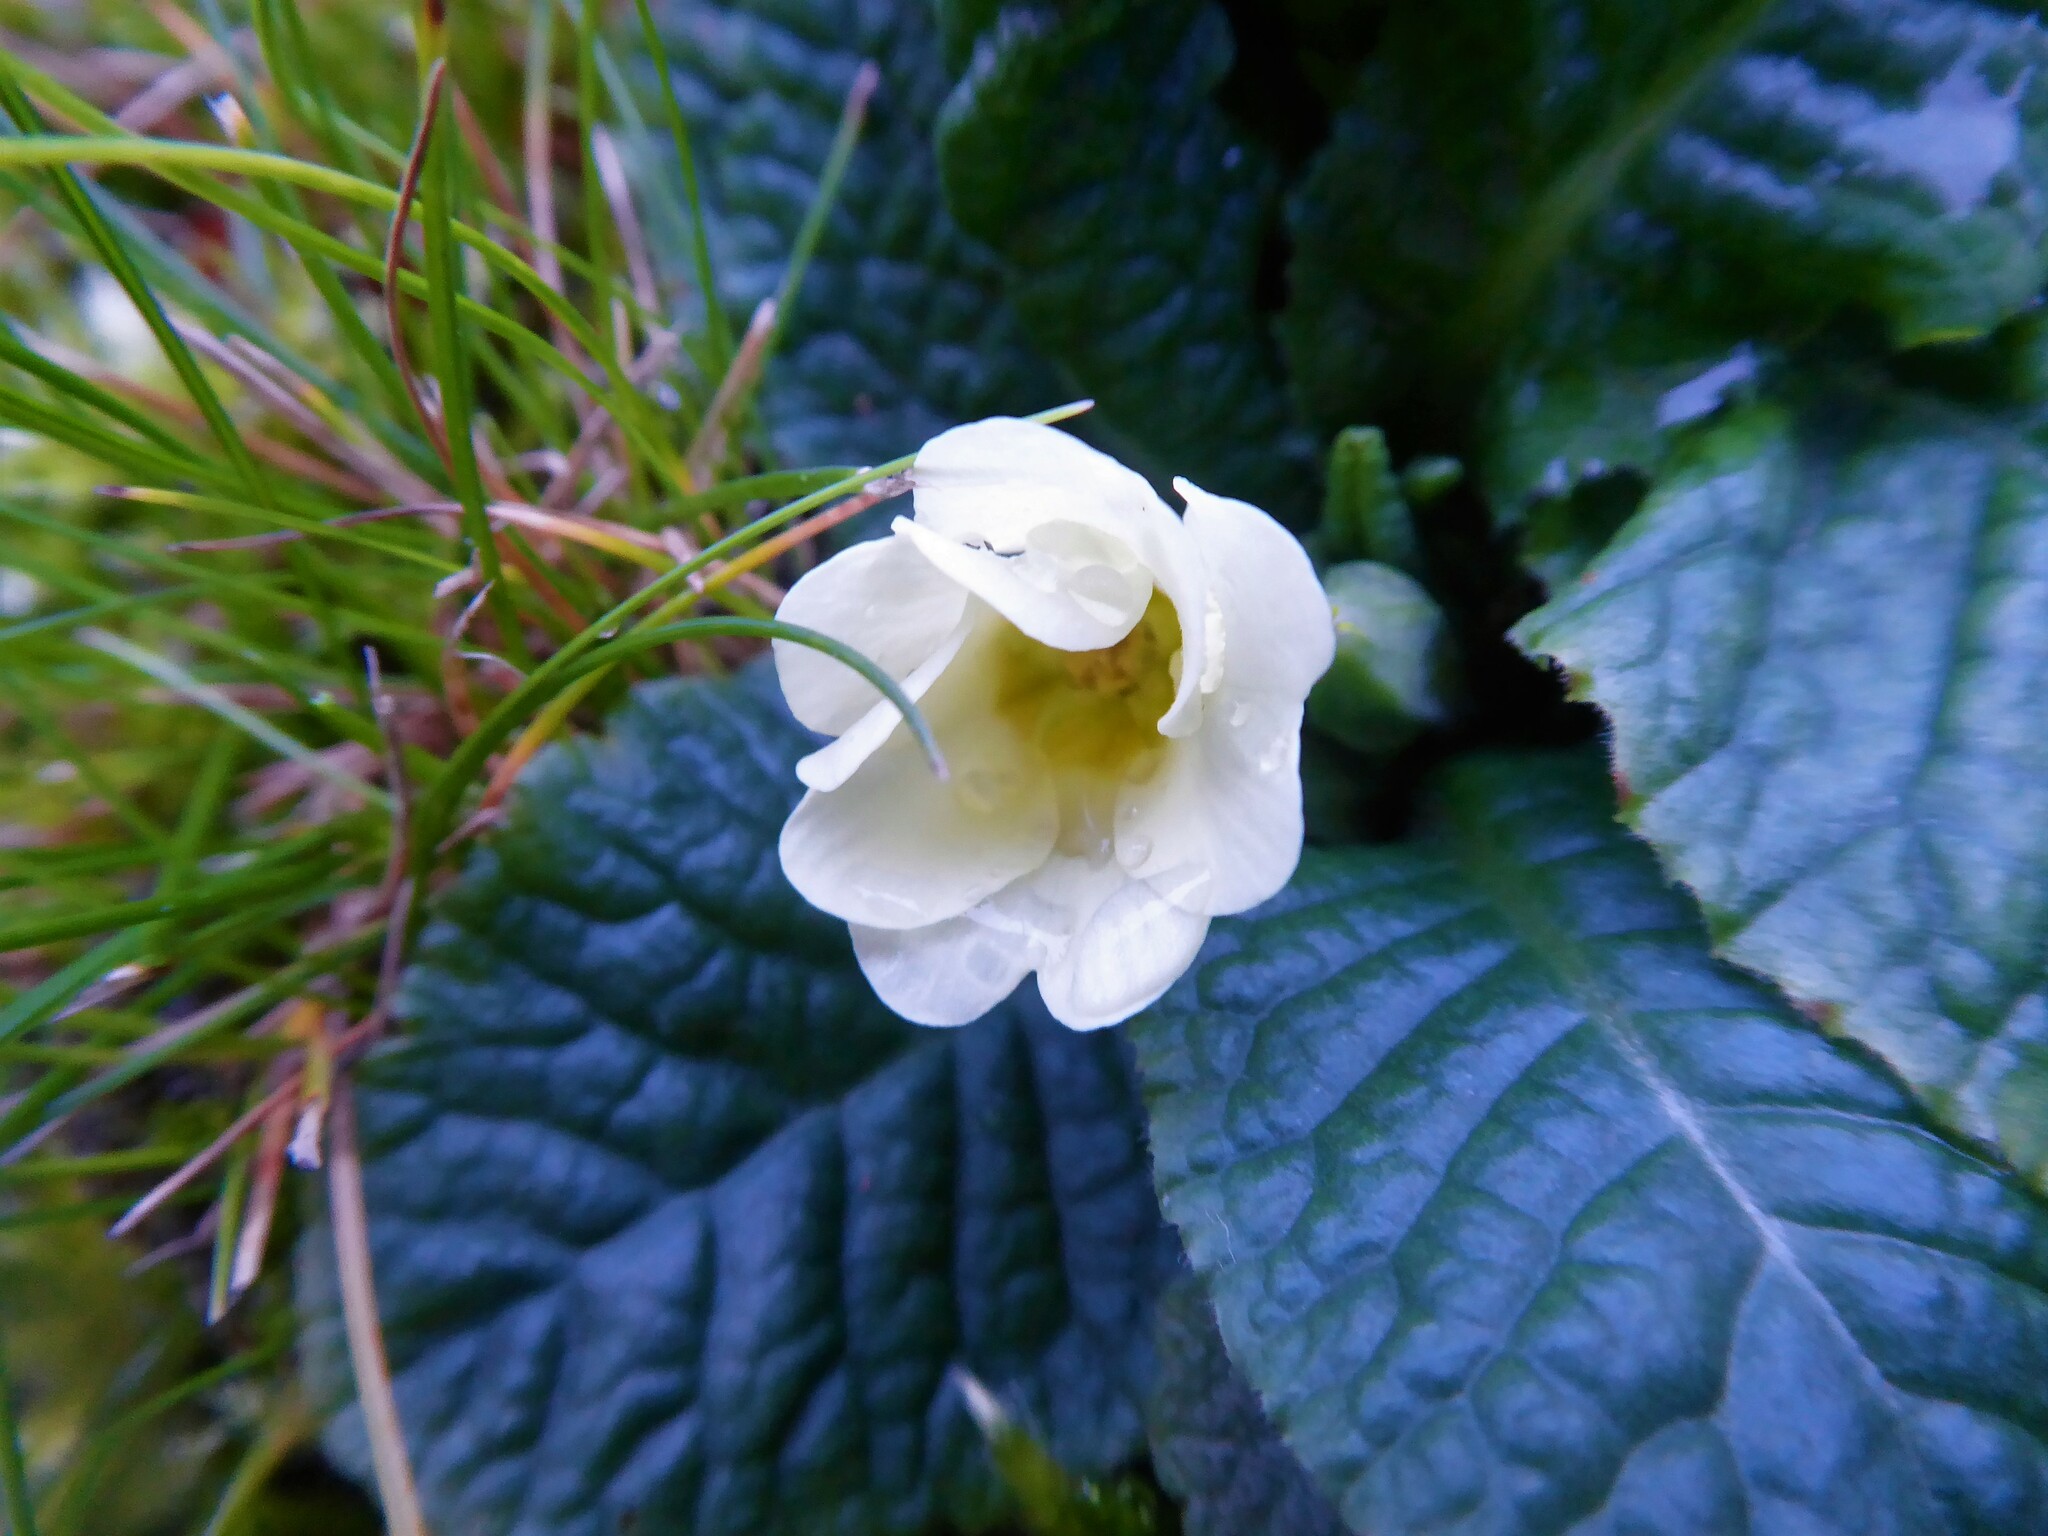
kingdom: Plantae
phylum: Tracheophyta
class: Magnoliopsida
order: Ericales
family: Primulaceae
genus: Primula
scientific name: Primula vulgaris
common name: Primrose
